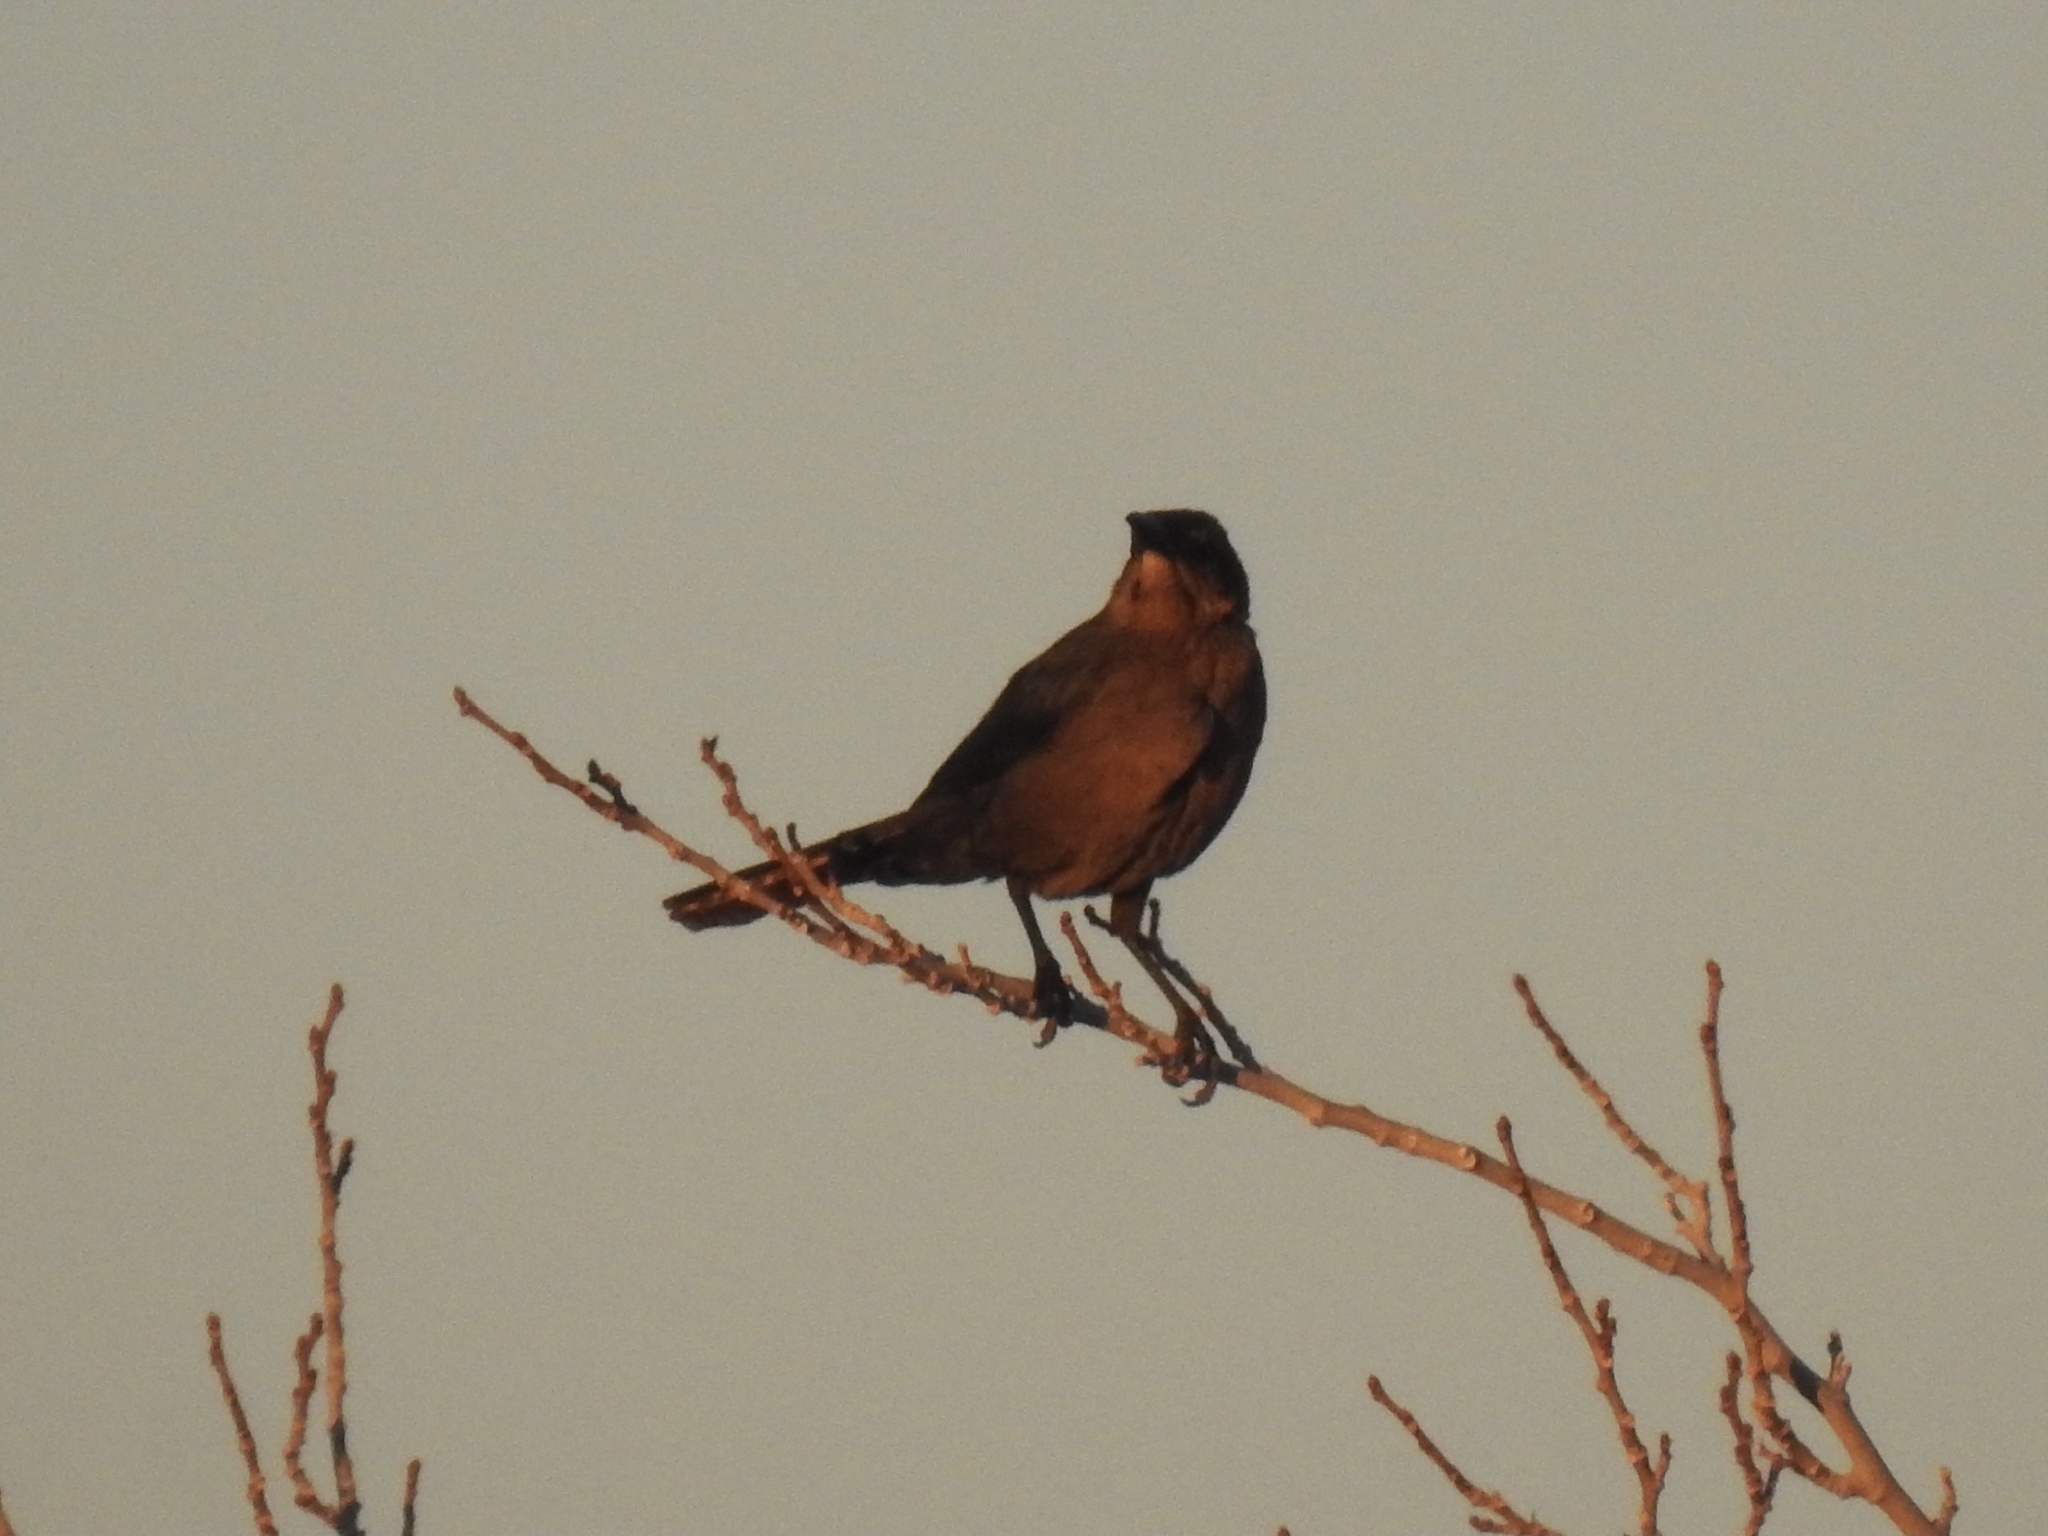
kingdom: Animalia
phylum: Chordata
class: Aves
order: Passeriformes
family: Icteridae
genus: Quiscalus
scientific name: Quiscalus mexicanus
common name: Great-tailed grackle
